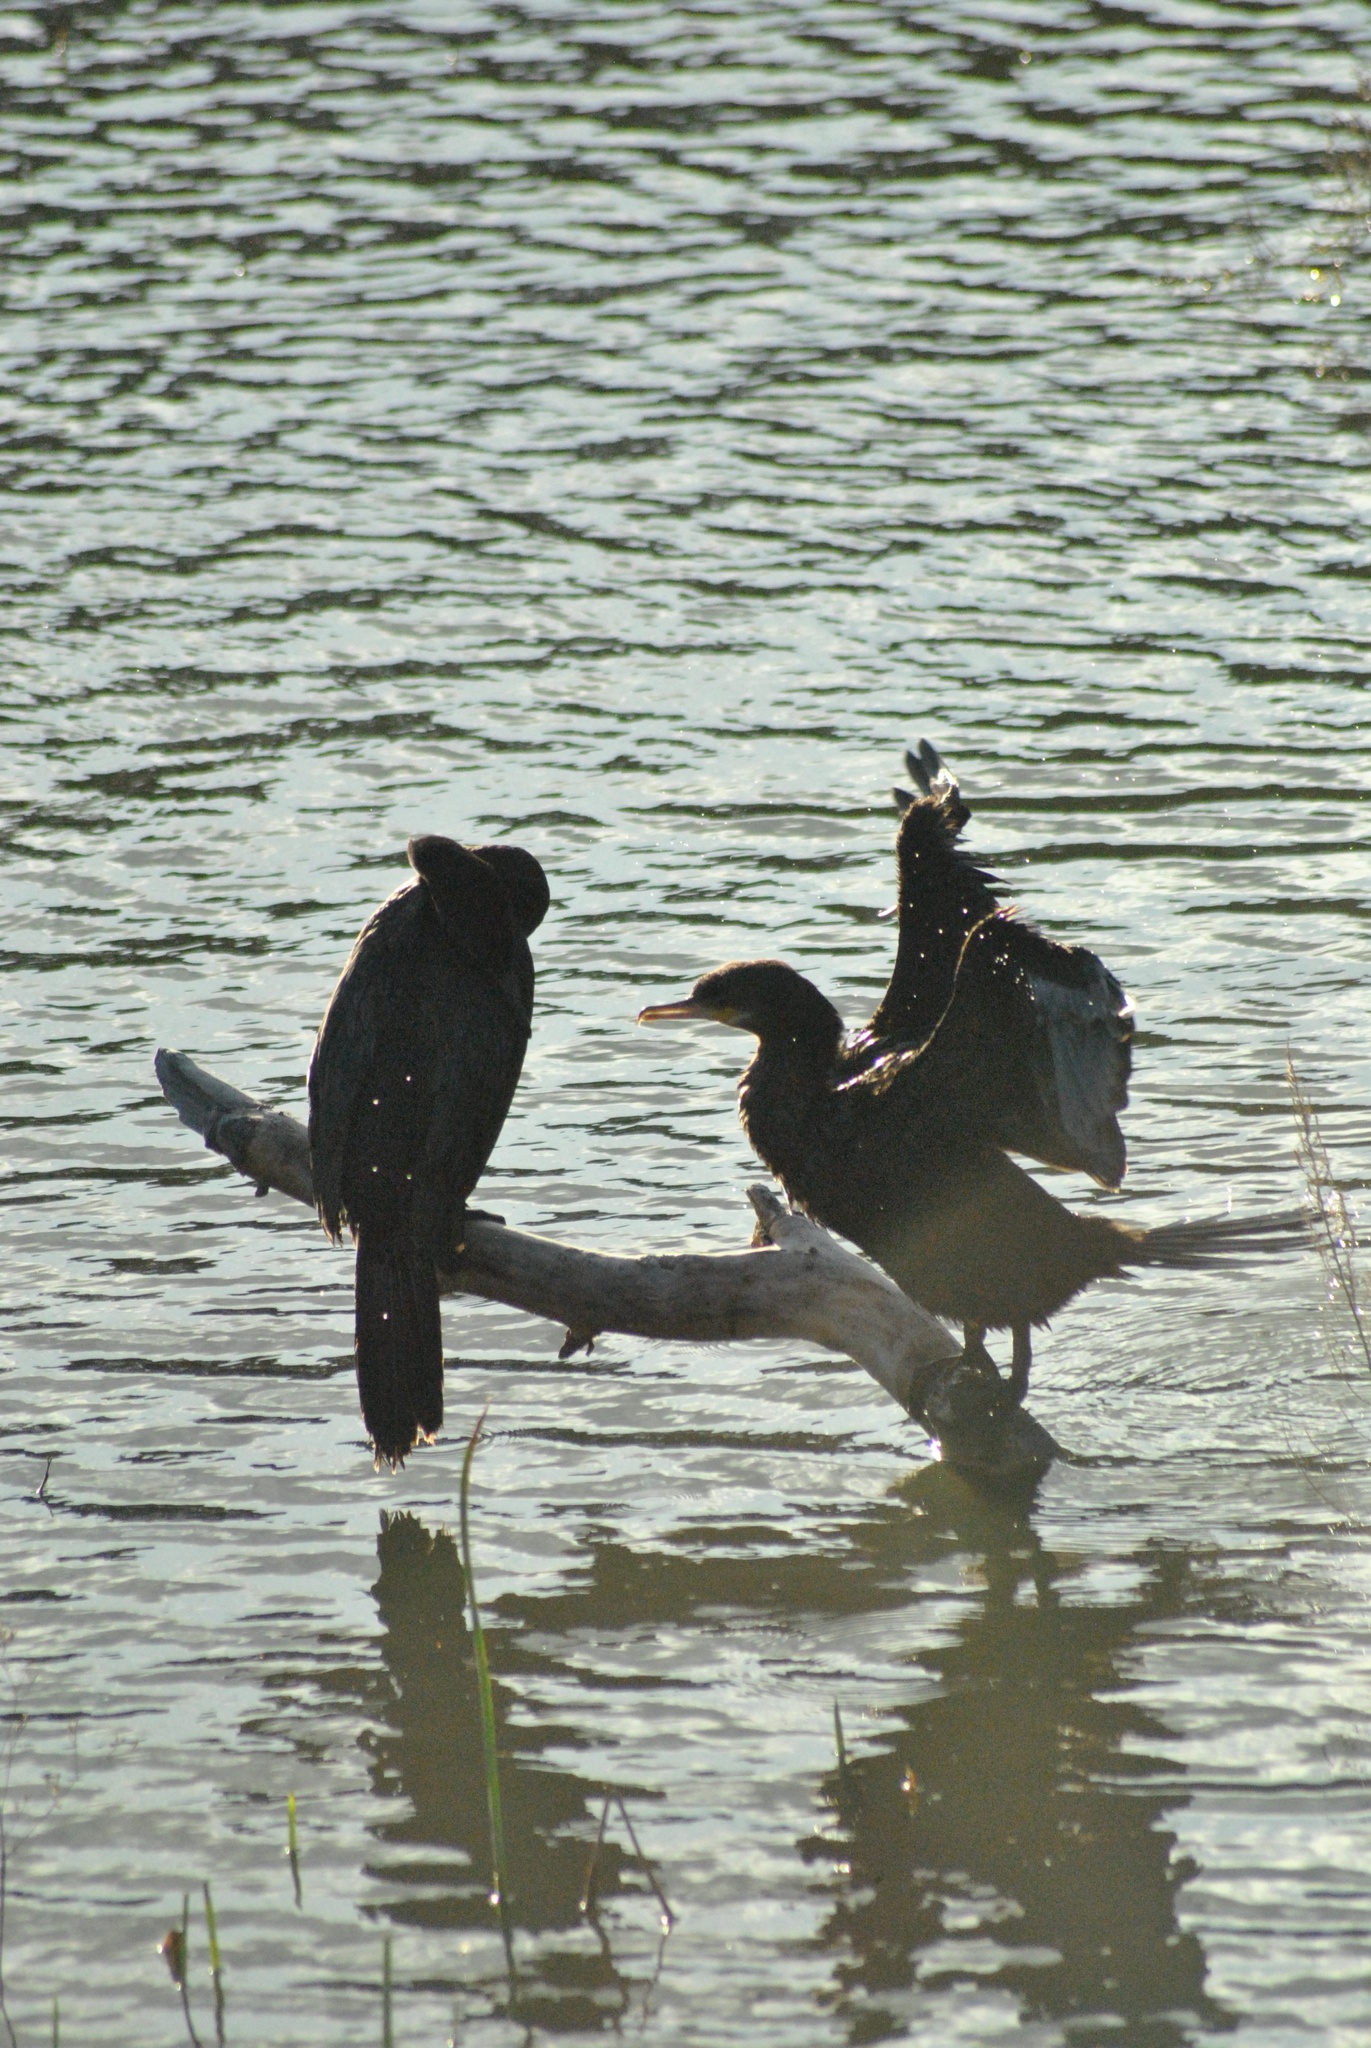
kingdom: Animalia
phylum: Chordata
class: Aves
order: Suliformes
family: Phalacrocoracidae
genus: Phalacrocorax
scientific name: Phalacrocorax brasilianus
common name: Neotropic cormorant
